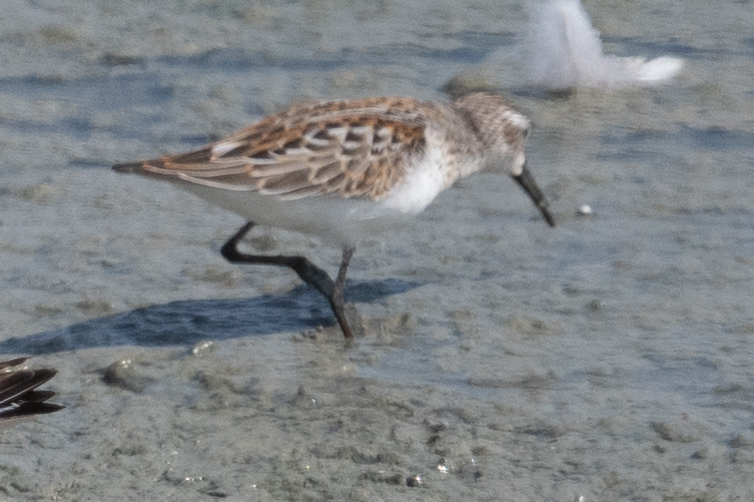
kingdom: Animalia
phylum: Chordata
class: Aves
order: Charadriiformes
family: Scolopacidae
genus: Calidris
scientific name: Calidris mauri
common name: Western sandpiper
